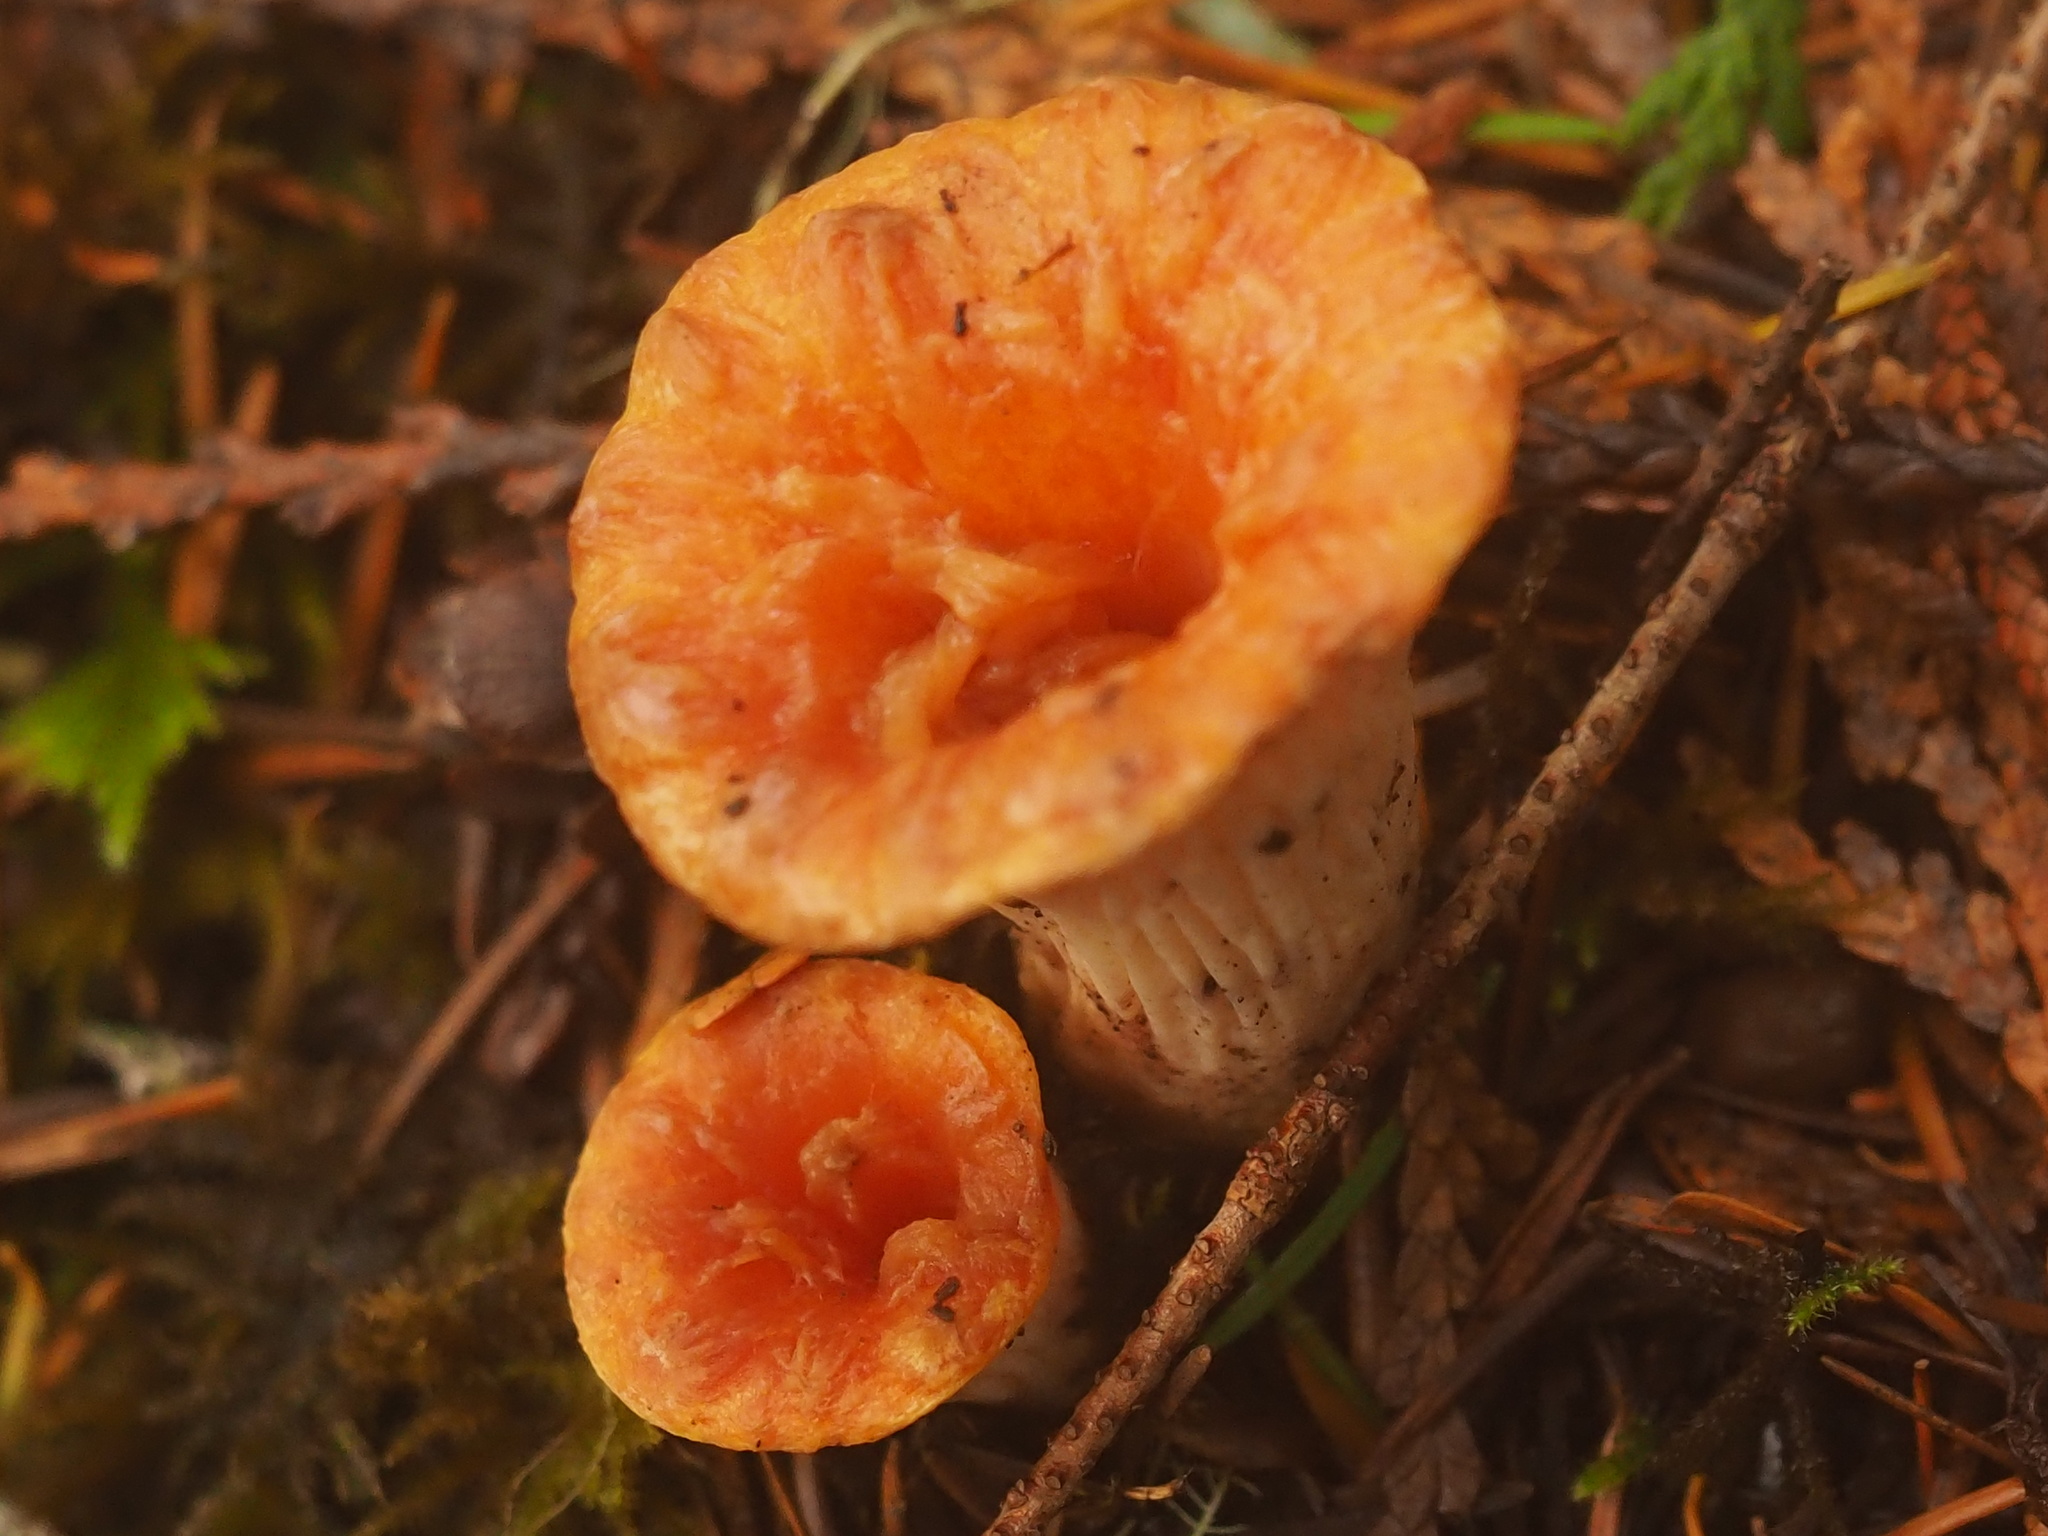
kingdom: Fungi
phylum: Basidiomycota
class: Agaricomycetes
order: Gomphales
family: Gomphaceae
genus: Turbinellus
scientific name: Turbinellus floccosus
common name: Scaly chanterelle
